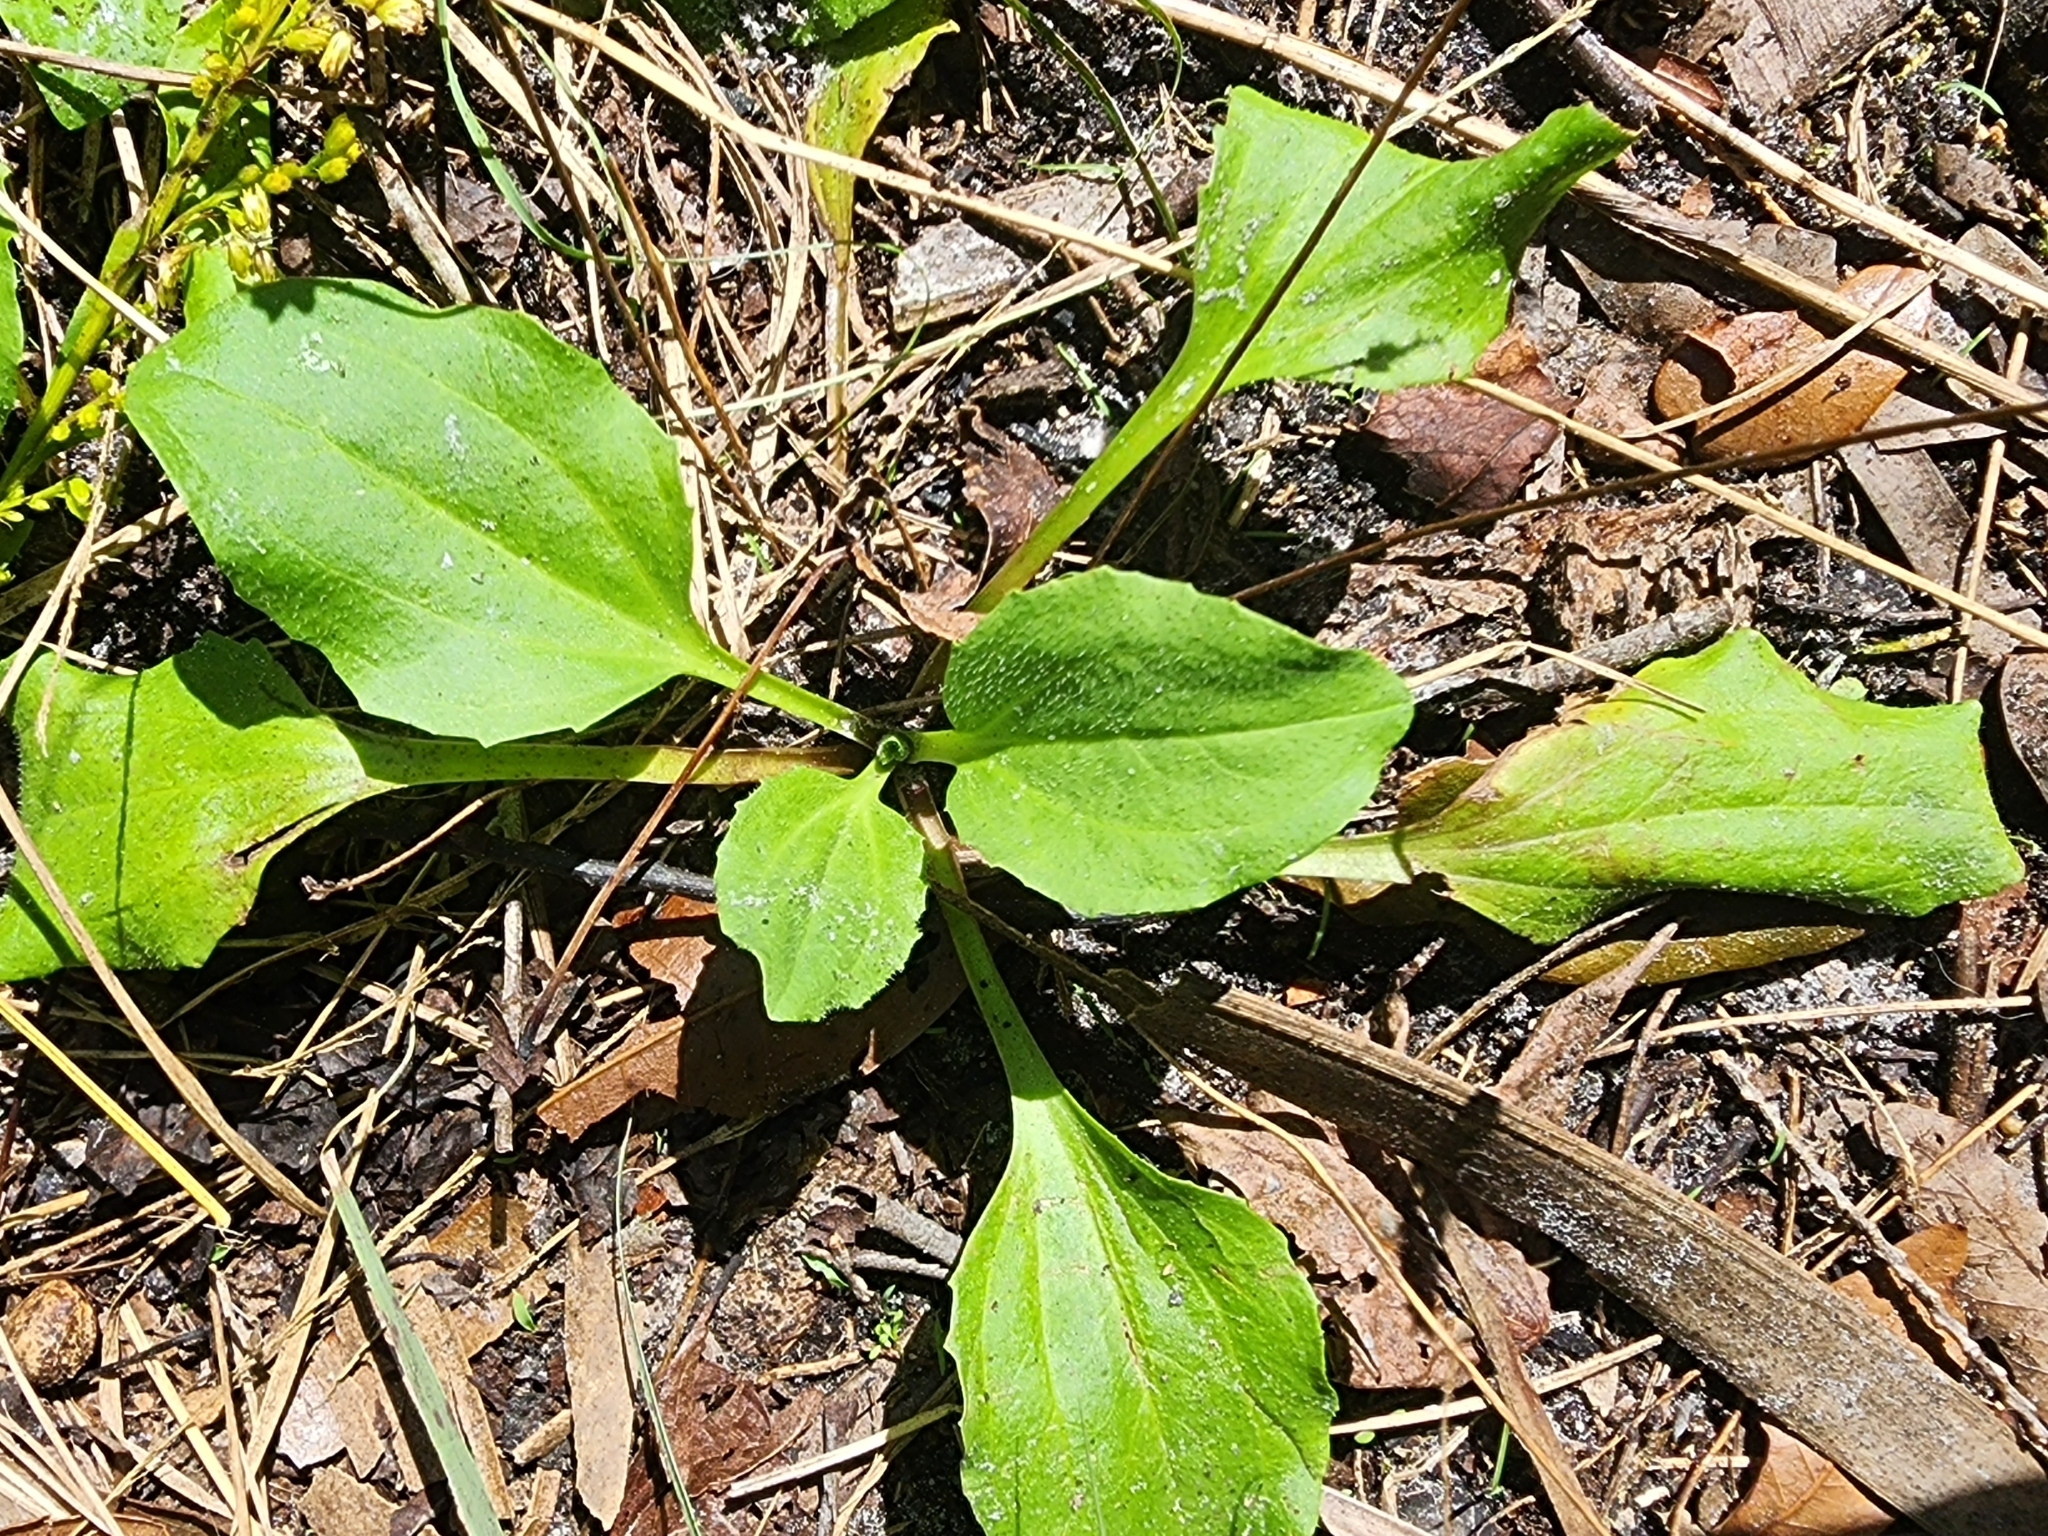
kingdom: Plantae
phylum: Tracheophyta
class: Magnoliopsida
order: Asterales
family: Asteraceae
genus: Arnoglossum
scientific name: Arnoglossum floridanum
